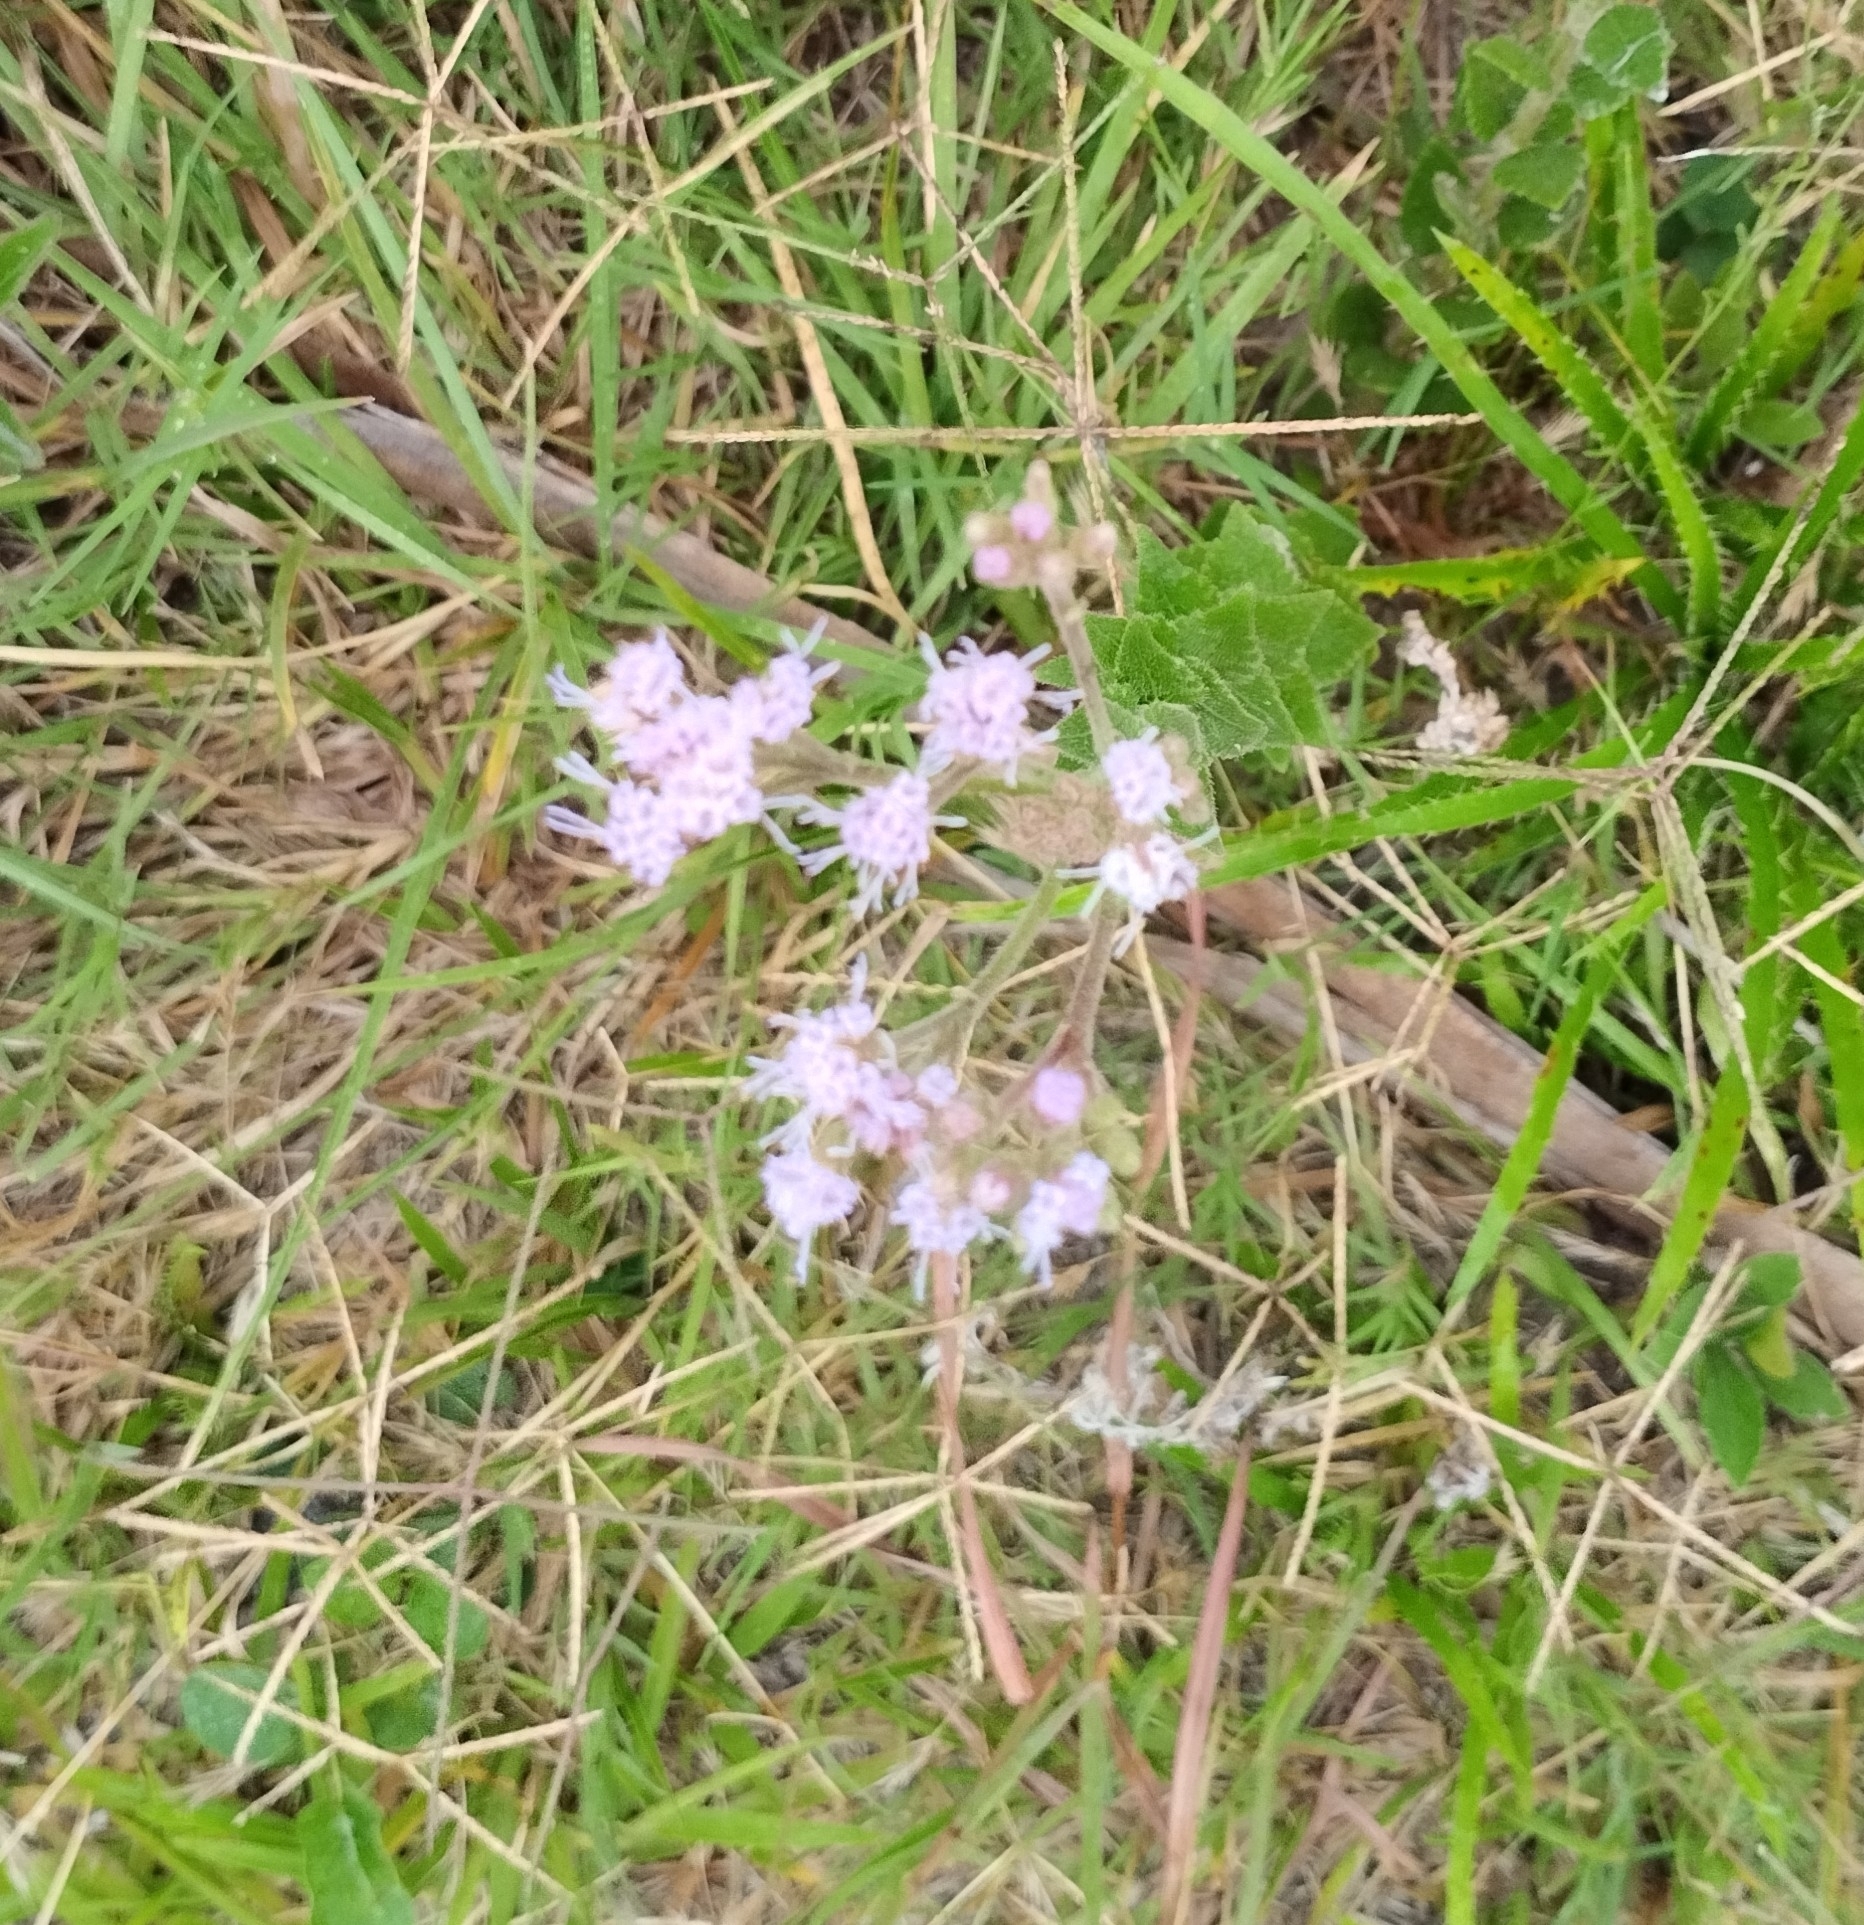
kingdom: Plantae
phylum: Tracheophyta
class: Magnoliopsida
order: Asterales
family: Asteraceae
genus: Chromolaena
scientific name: Chromolaena hirsuta
